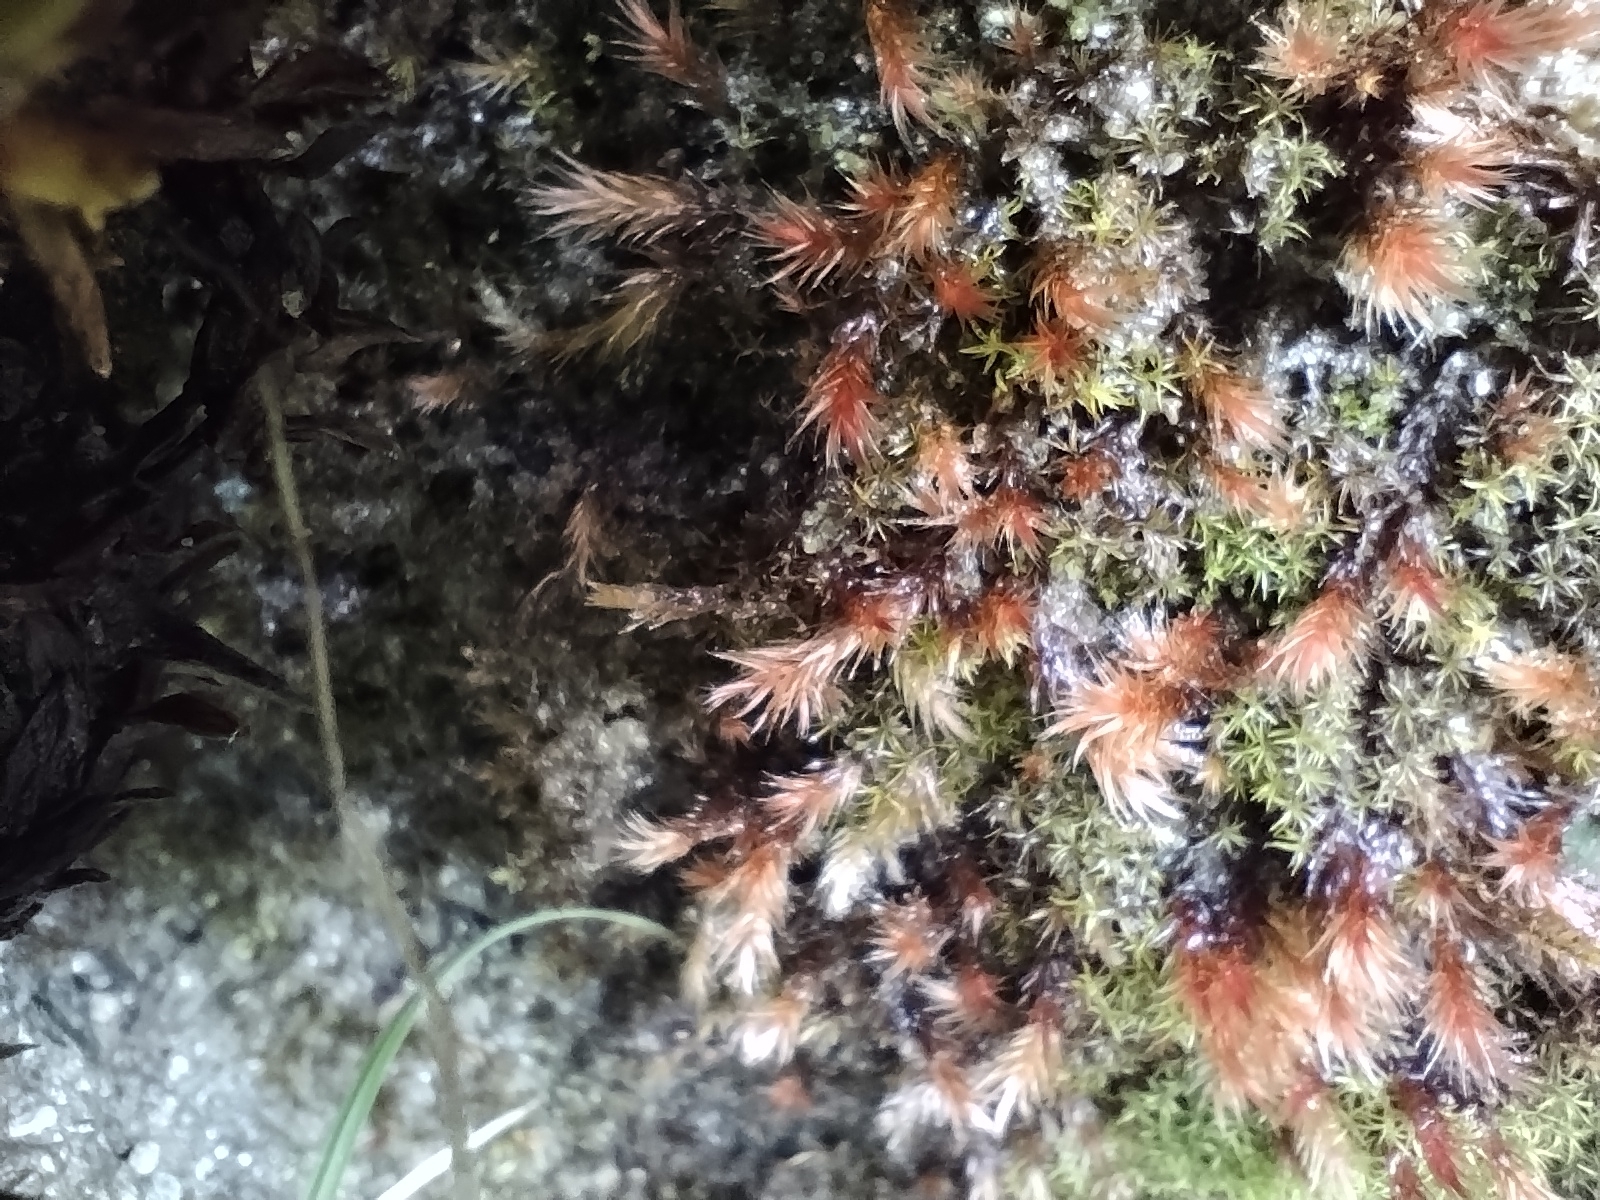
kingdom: Plantae
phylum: Bryophyta
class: Bryopsida
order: Hypnales
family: Plagiotheciaceae
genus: Orthothecium
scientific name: Orthothecium rufescens
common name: Red leskea
